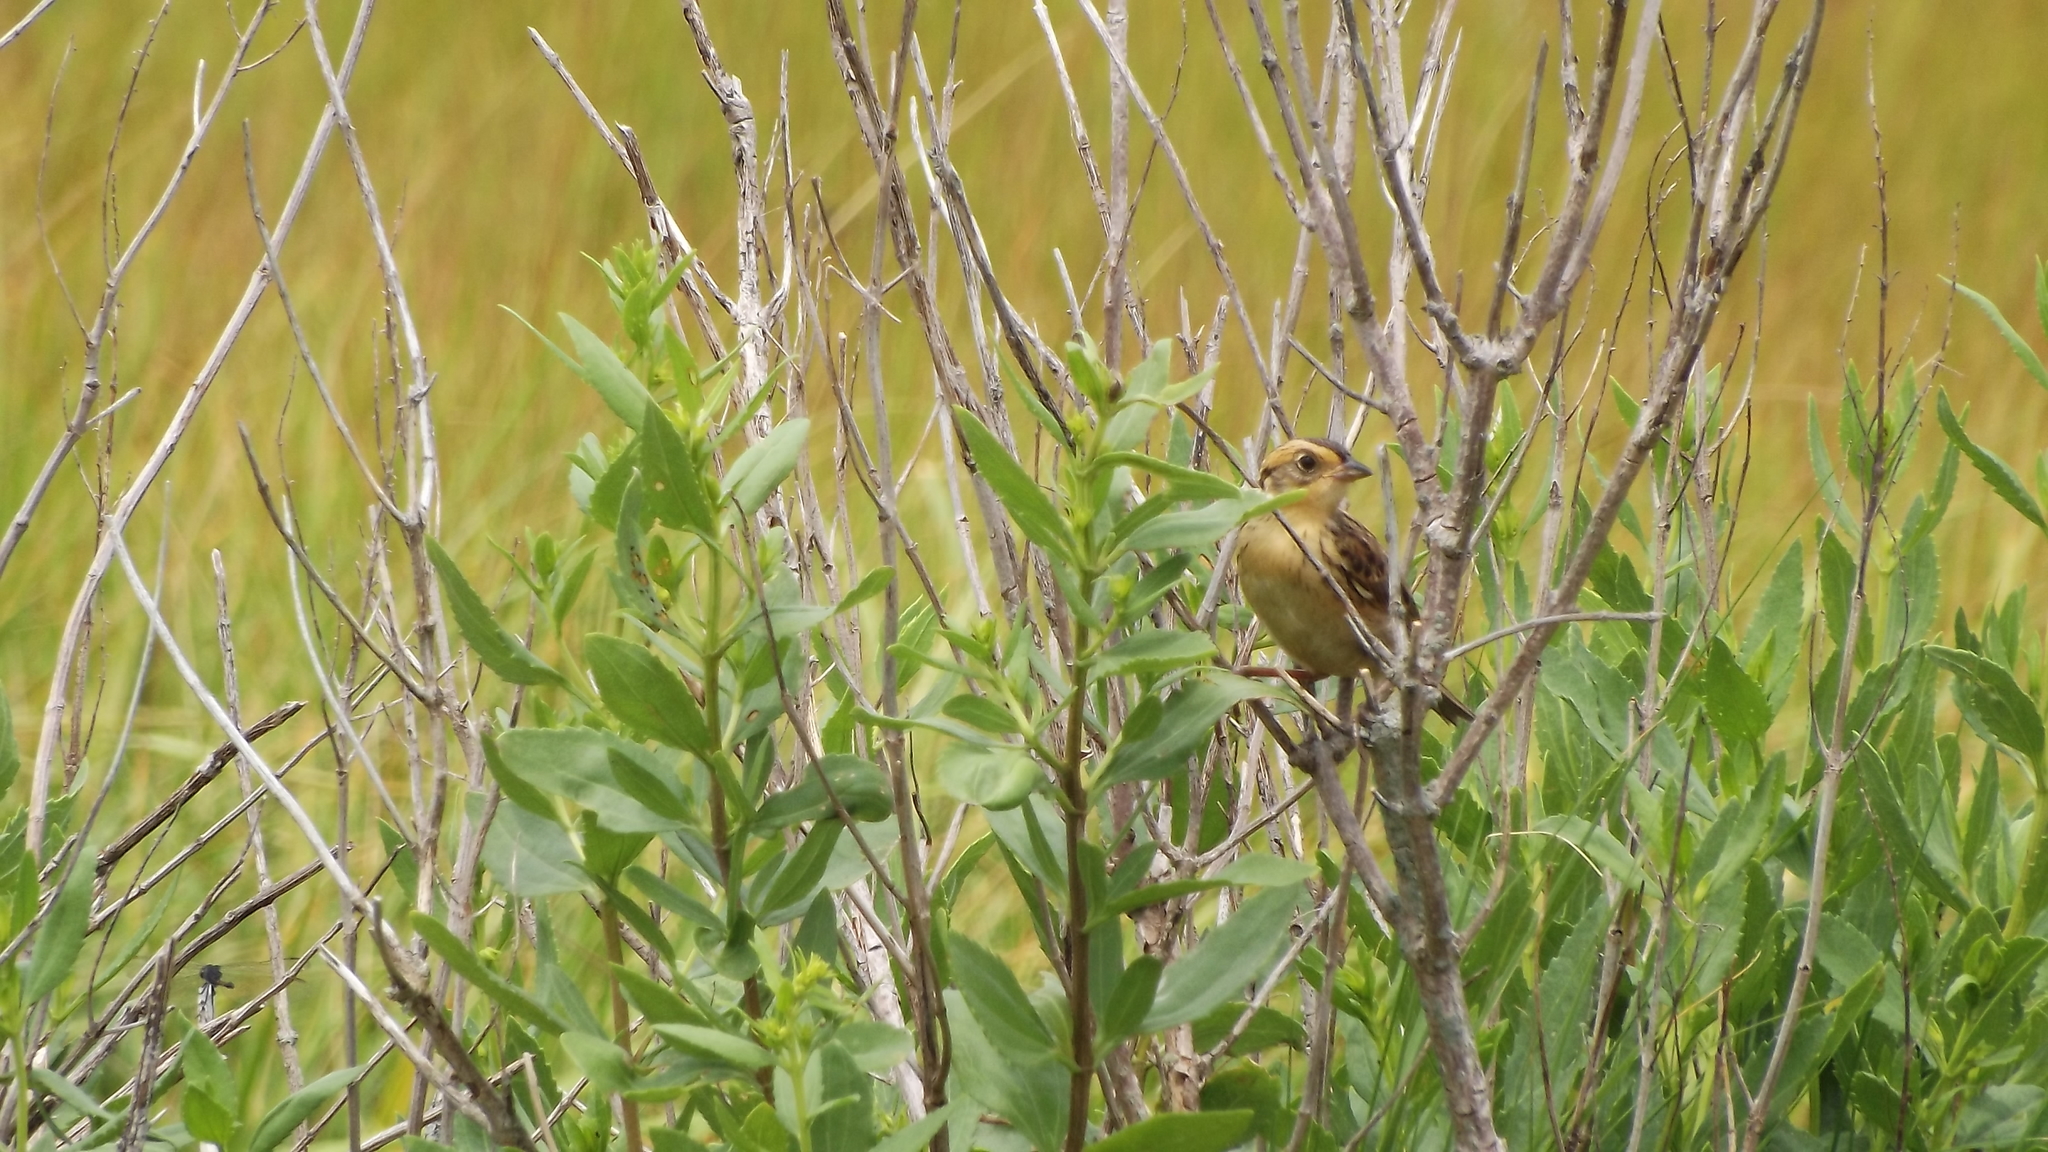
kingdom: Animalia
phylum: Chordata
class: Aves
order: Passeriformes
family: Passerellidae
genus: Ammospiza
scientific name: Ammospiza caudacuta
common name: Saltmarsh sparrow
